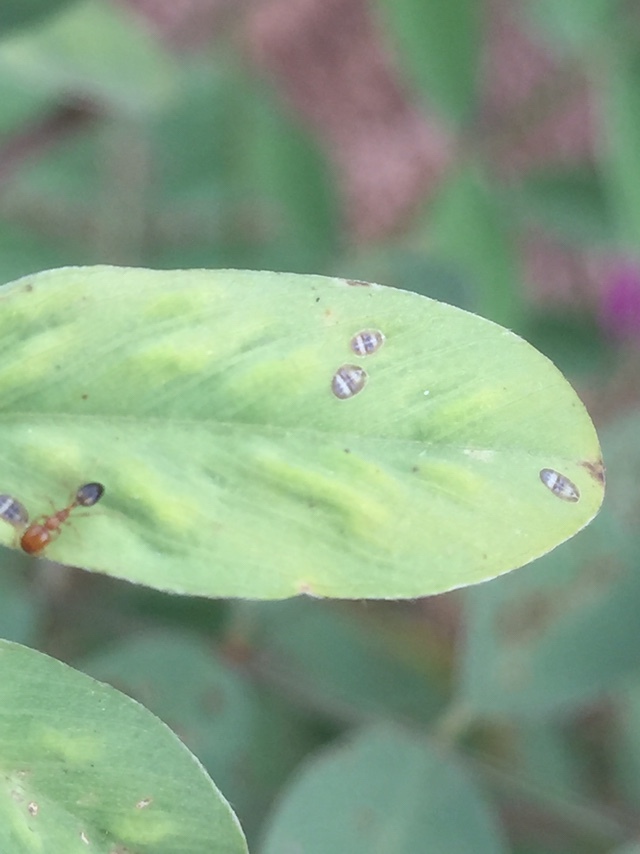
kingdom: Animalia
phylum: Arthropoda
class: Insecta
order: Hymenoptera
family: Formicidae
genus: Monomorium
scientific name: Monomorium destructor
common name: Destructive trailing ant
